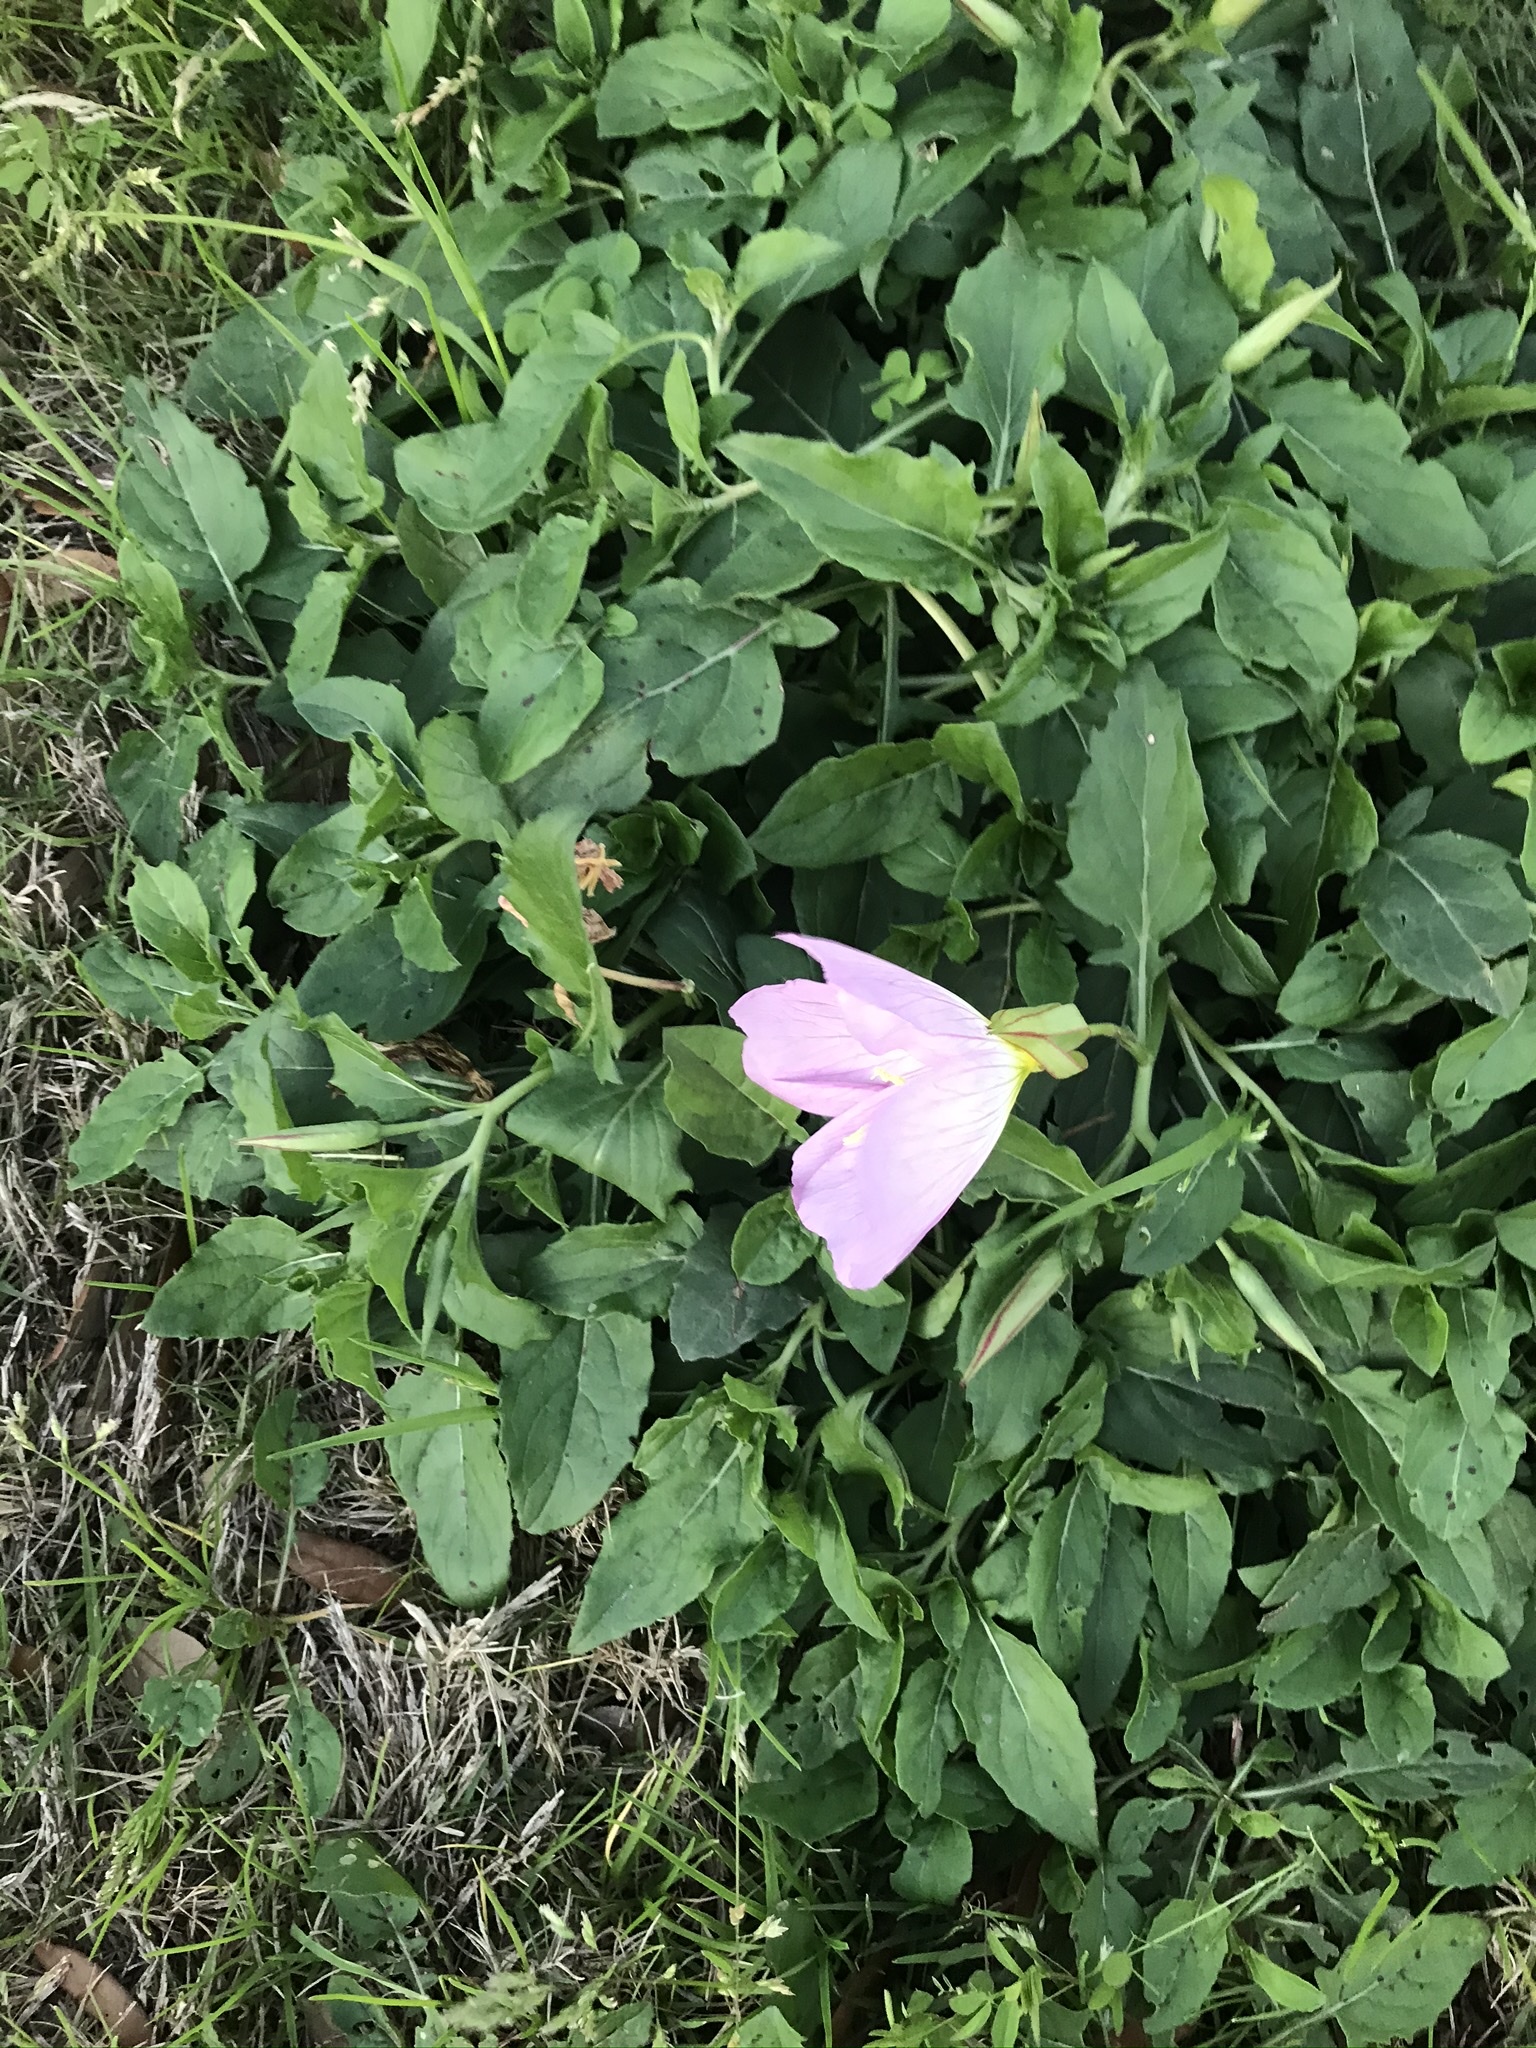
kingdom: Plantae
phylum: Tracheophyta
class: Magnoliopsida
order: Myrtales
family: Onagraceae
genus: Oenothera
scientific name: Oenothera speciosa
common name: White evening-primrose
